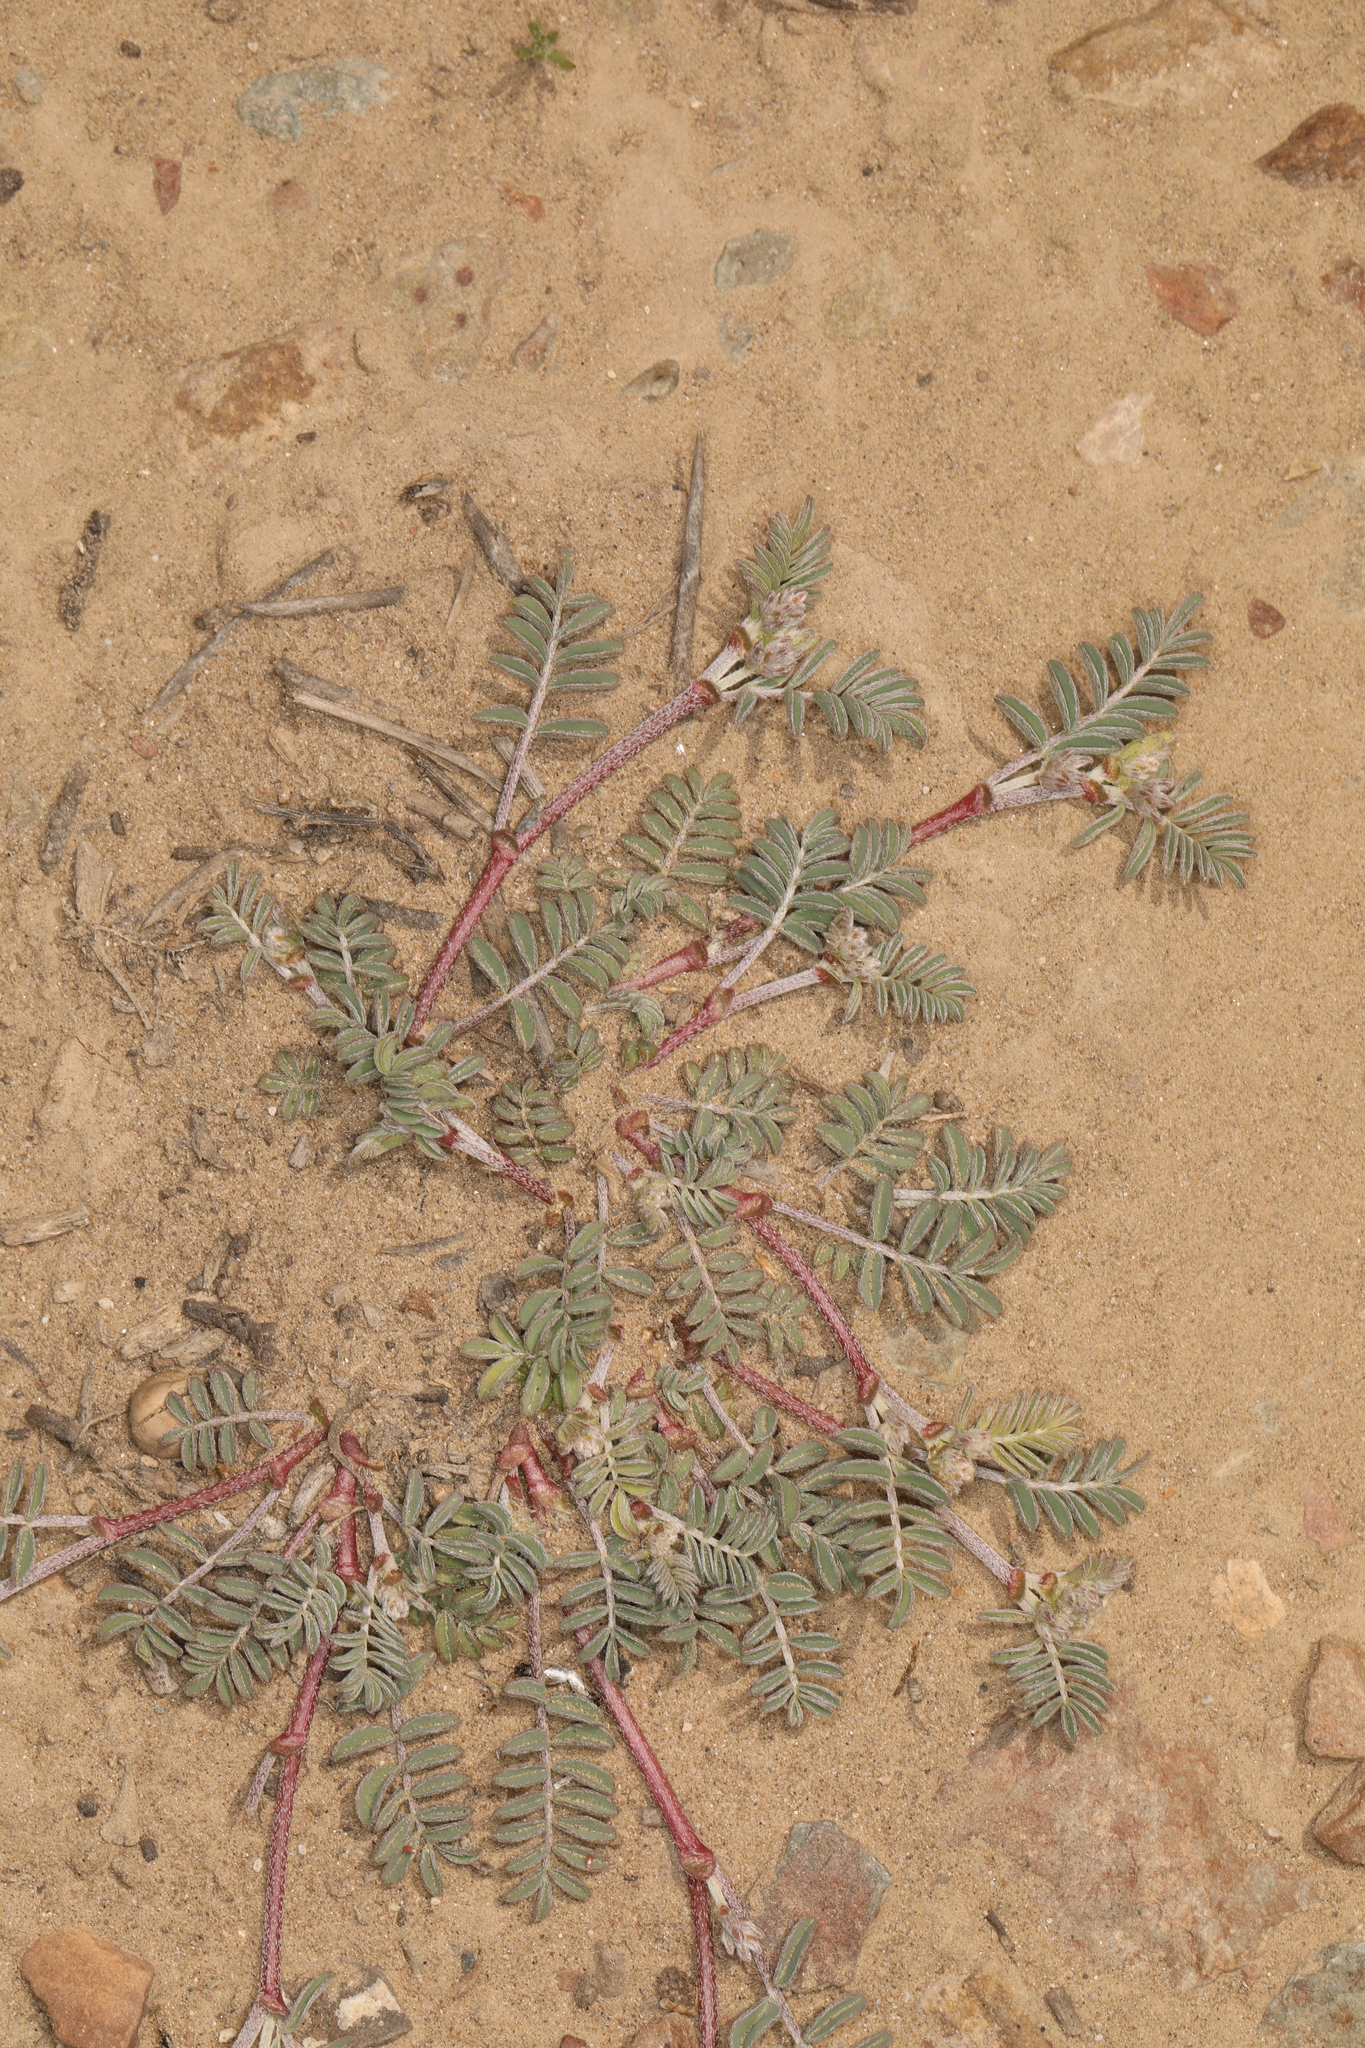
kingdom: Plantae
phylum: Tracheophyta
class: Magnoliopsida
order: Fabales
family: Fabaceae
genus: Astragalus
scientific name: Astragalus inyoensis
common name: Inyo locoweed
